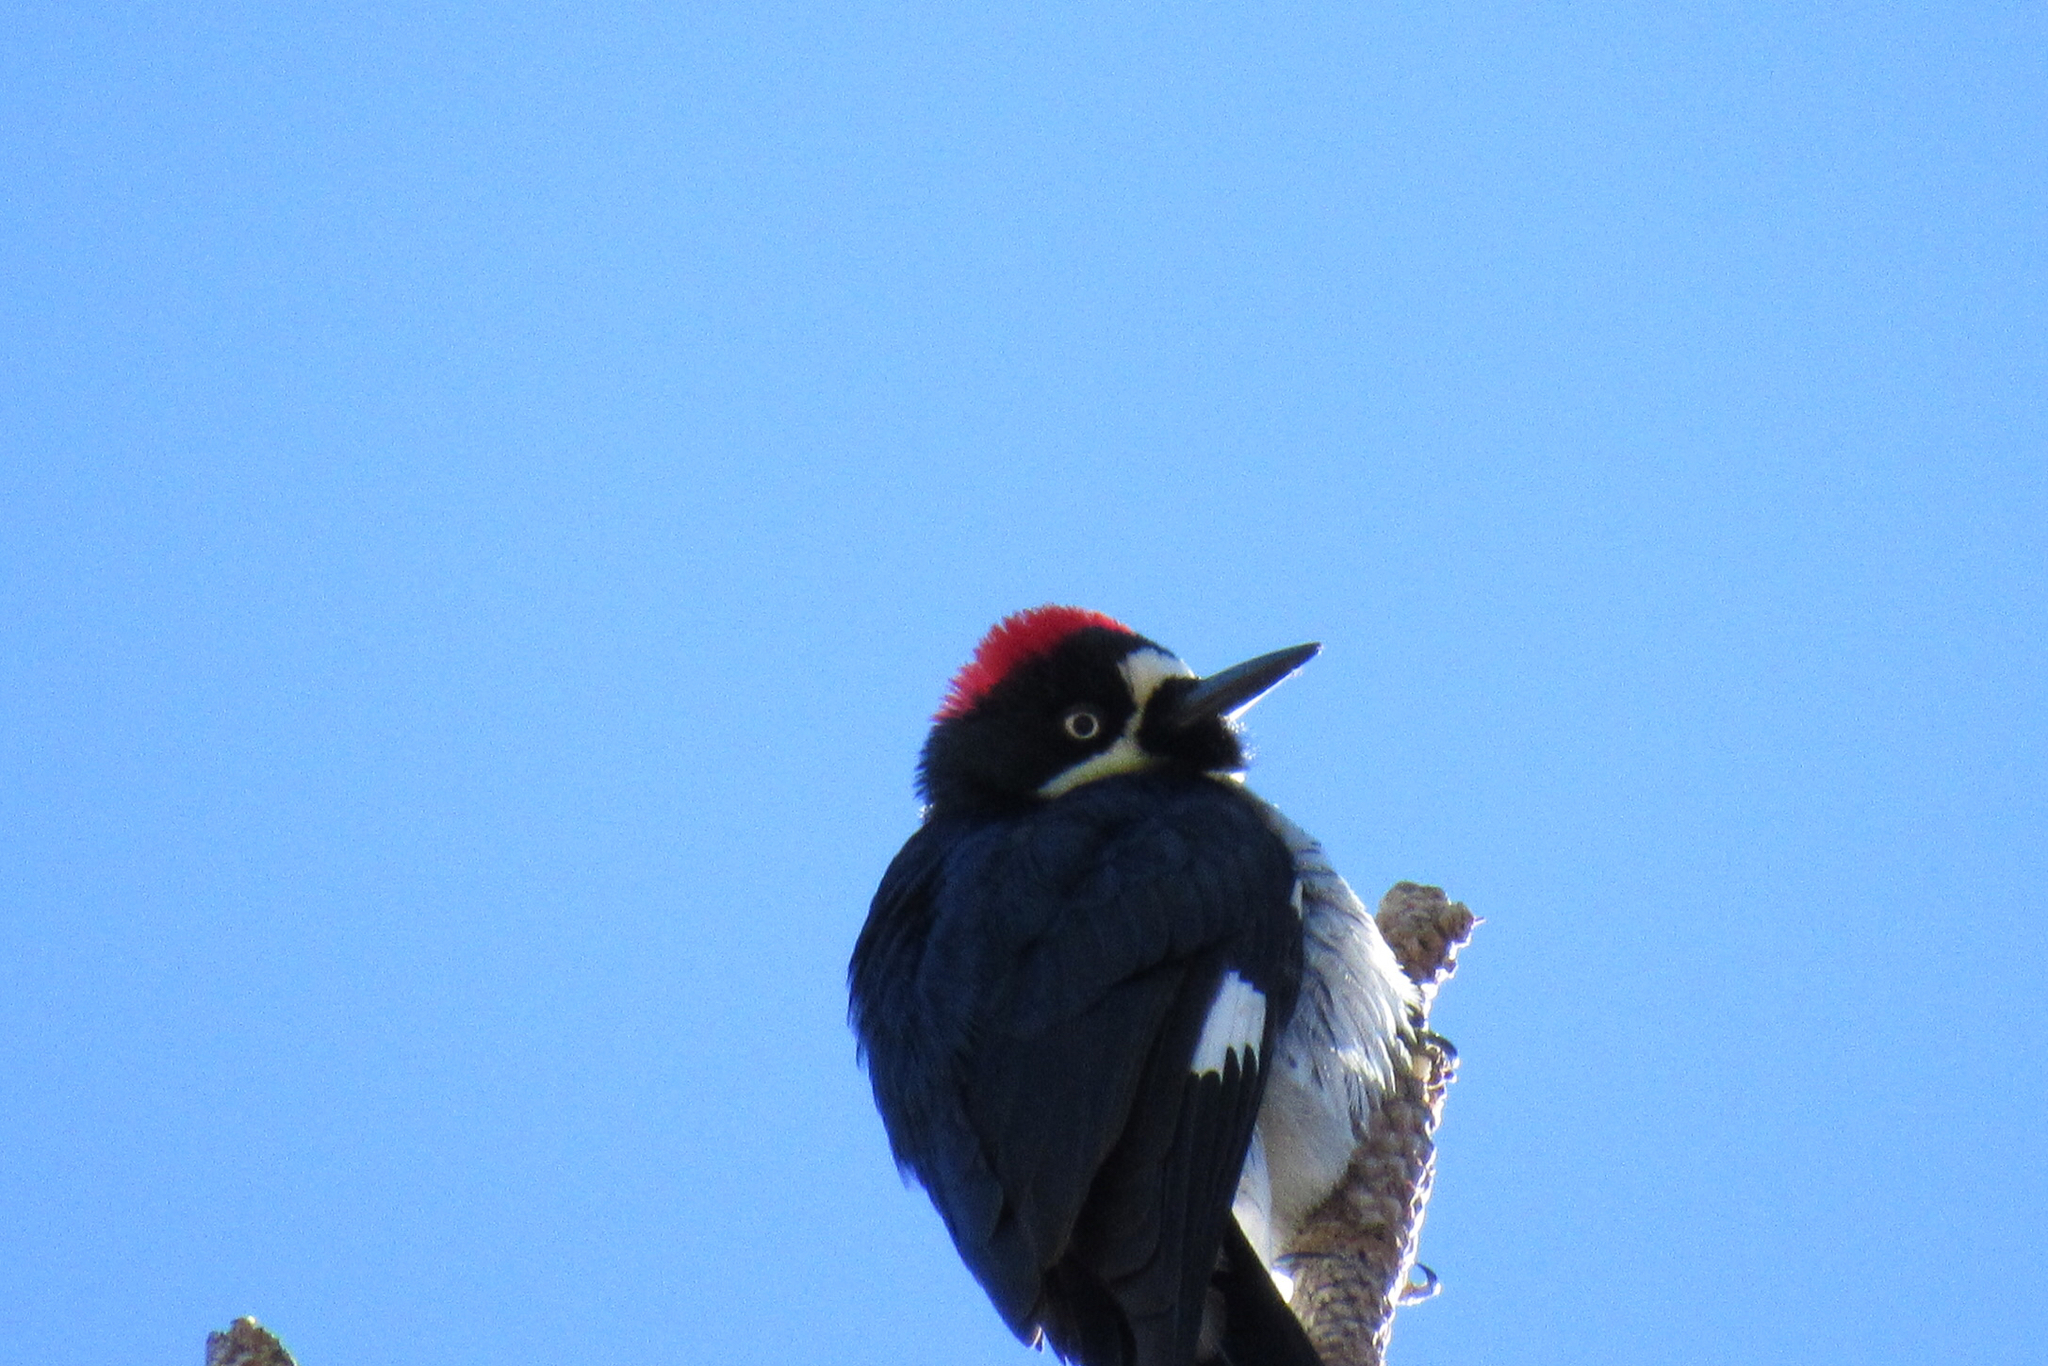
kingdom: Animalia
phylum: Chordata
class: Aves
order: Piciformes
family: Picidae
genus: Melanerpes
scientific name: Melanerpes formicivorus
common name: Acorn woodpecker
